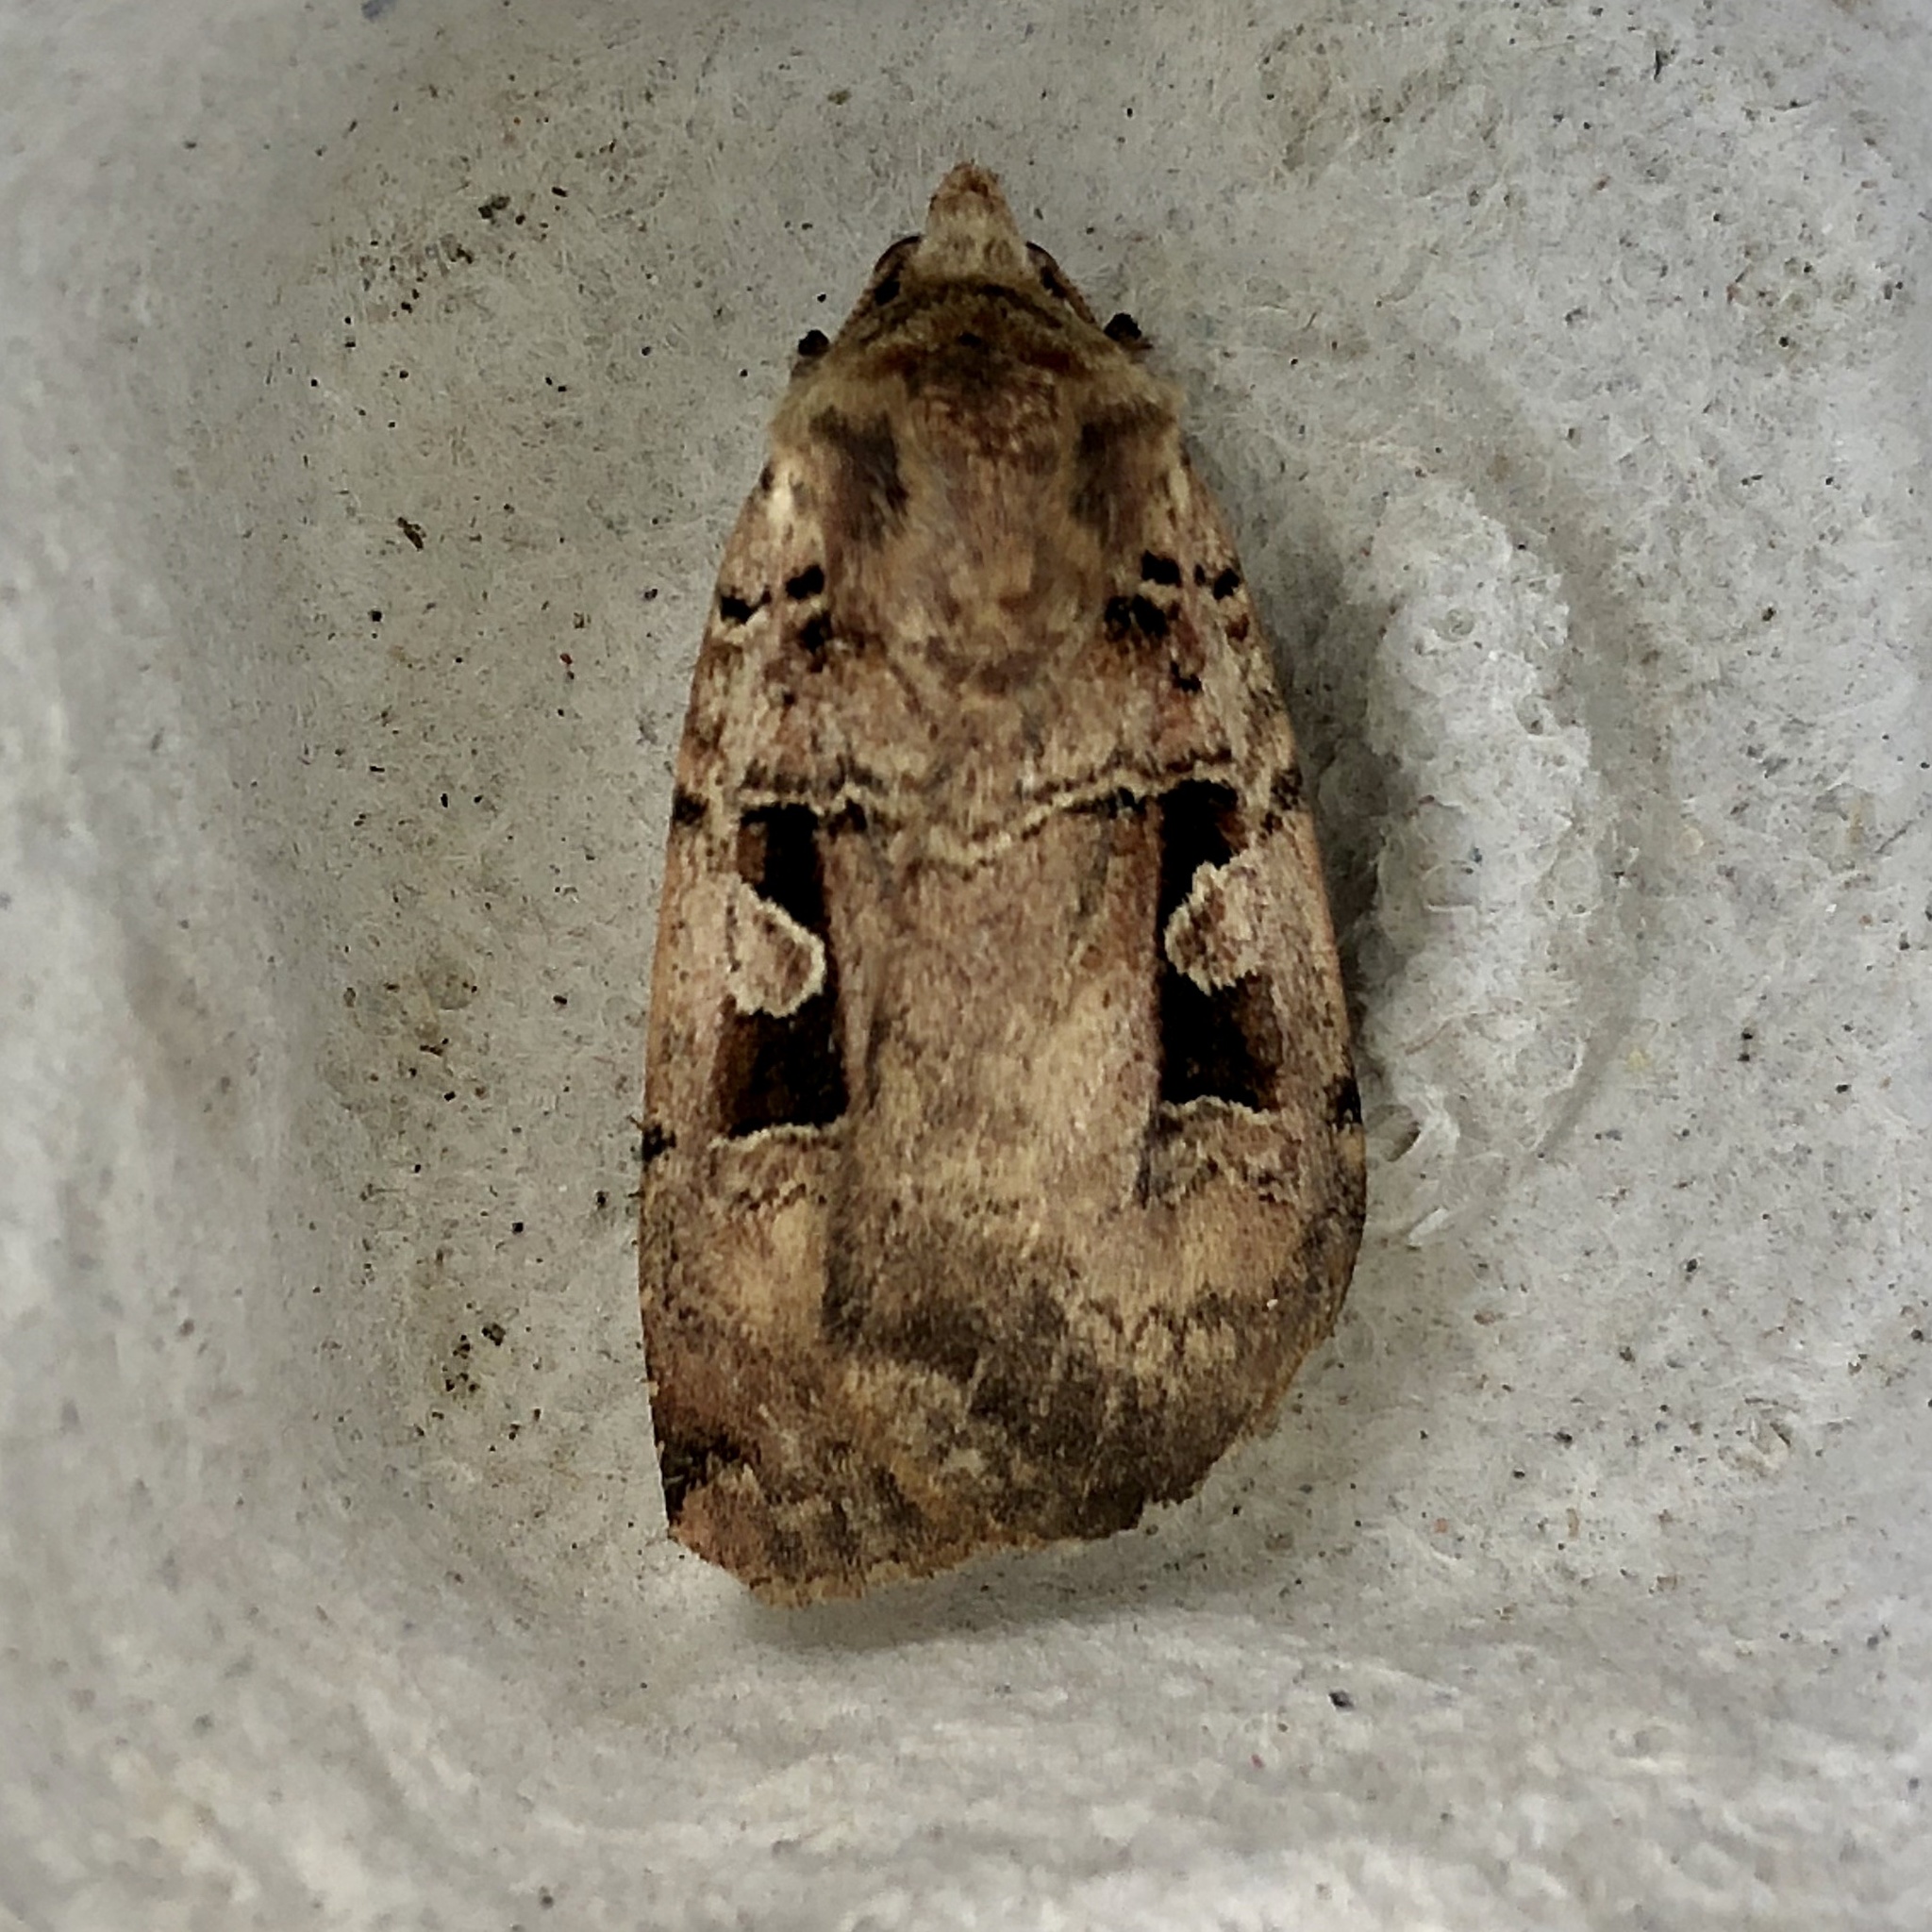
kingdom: Animalia
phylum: Arthropoda
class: Insecta
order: Lepidoptera
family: Noctuidae
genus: Xestia
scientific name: Xestia triangulum
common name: Double square-spot
